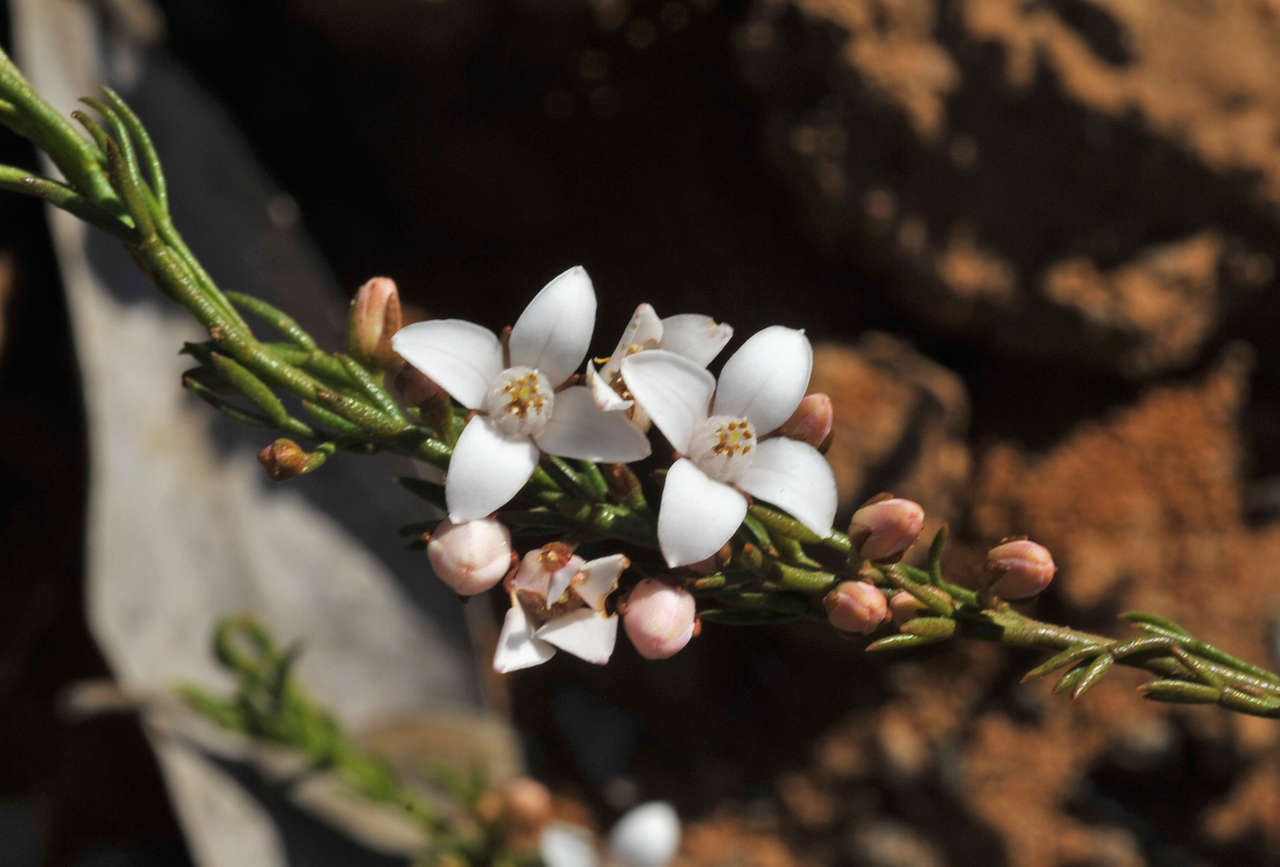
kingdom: Plantae
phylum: Tracheophyta
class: Magnoliopsida
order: Sapindales
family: Rutaceae
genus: Cyanothamnus
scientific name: Cyanothamnus nanus
